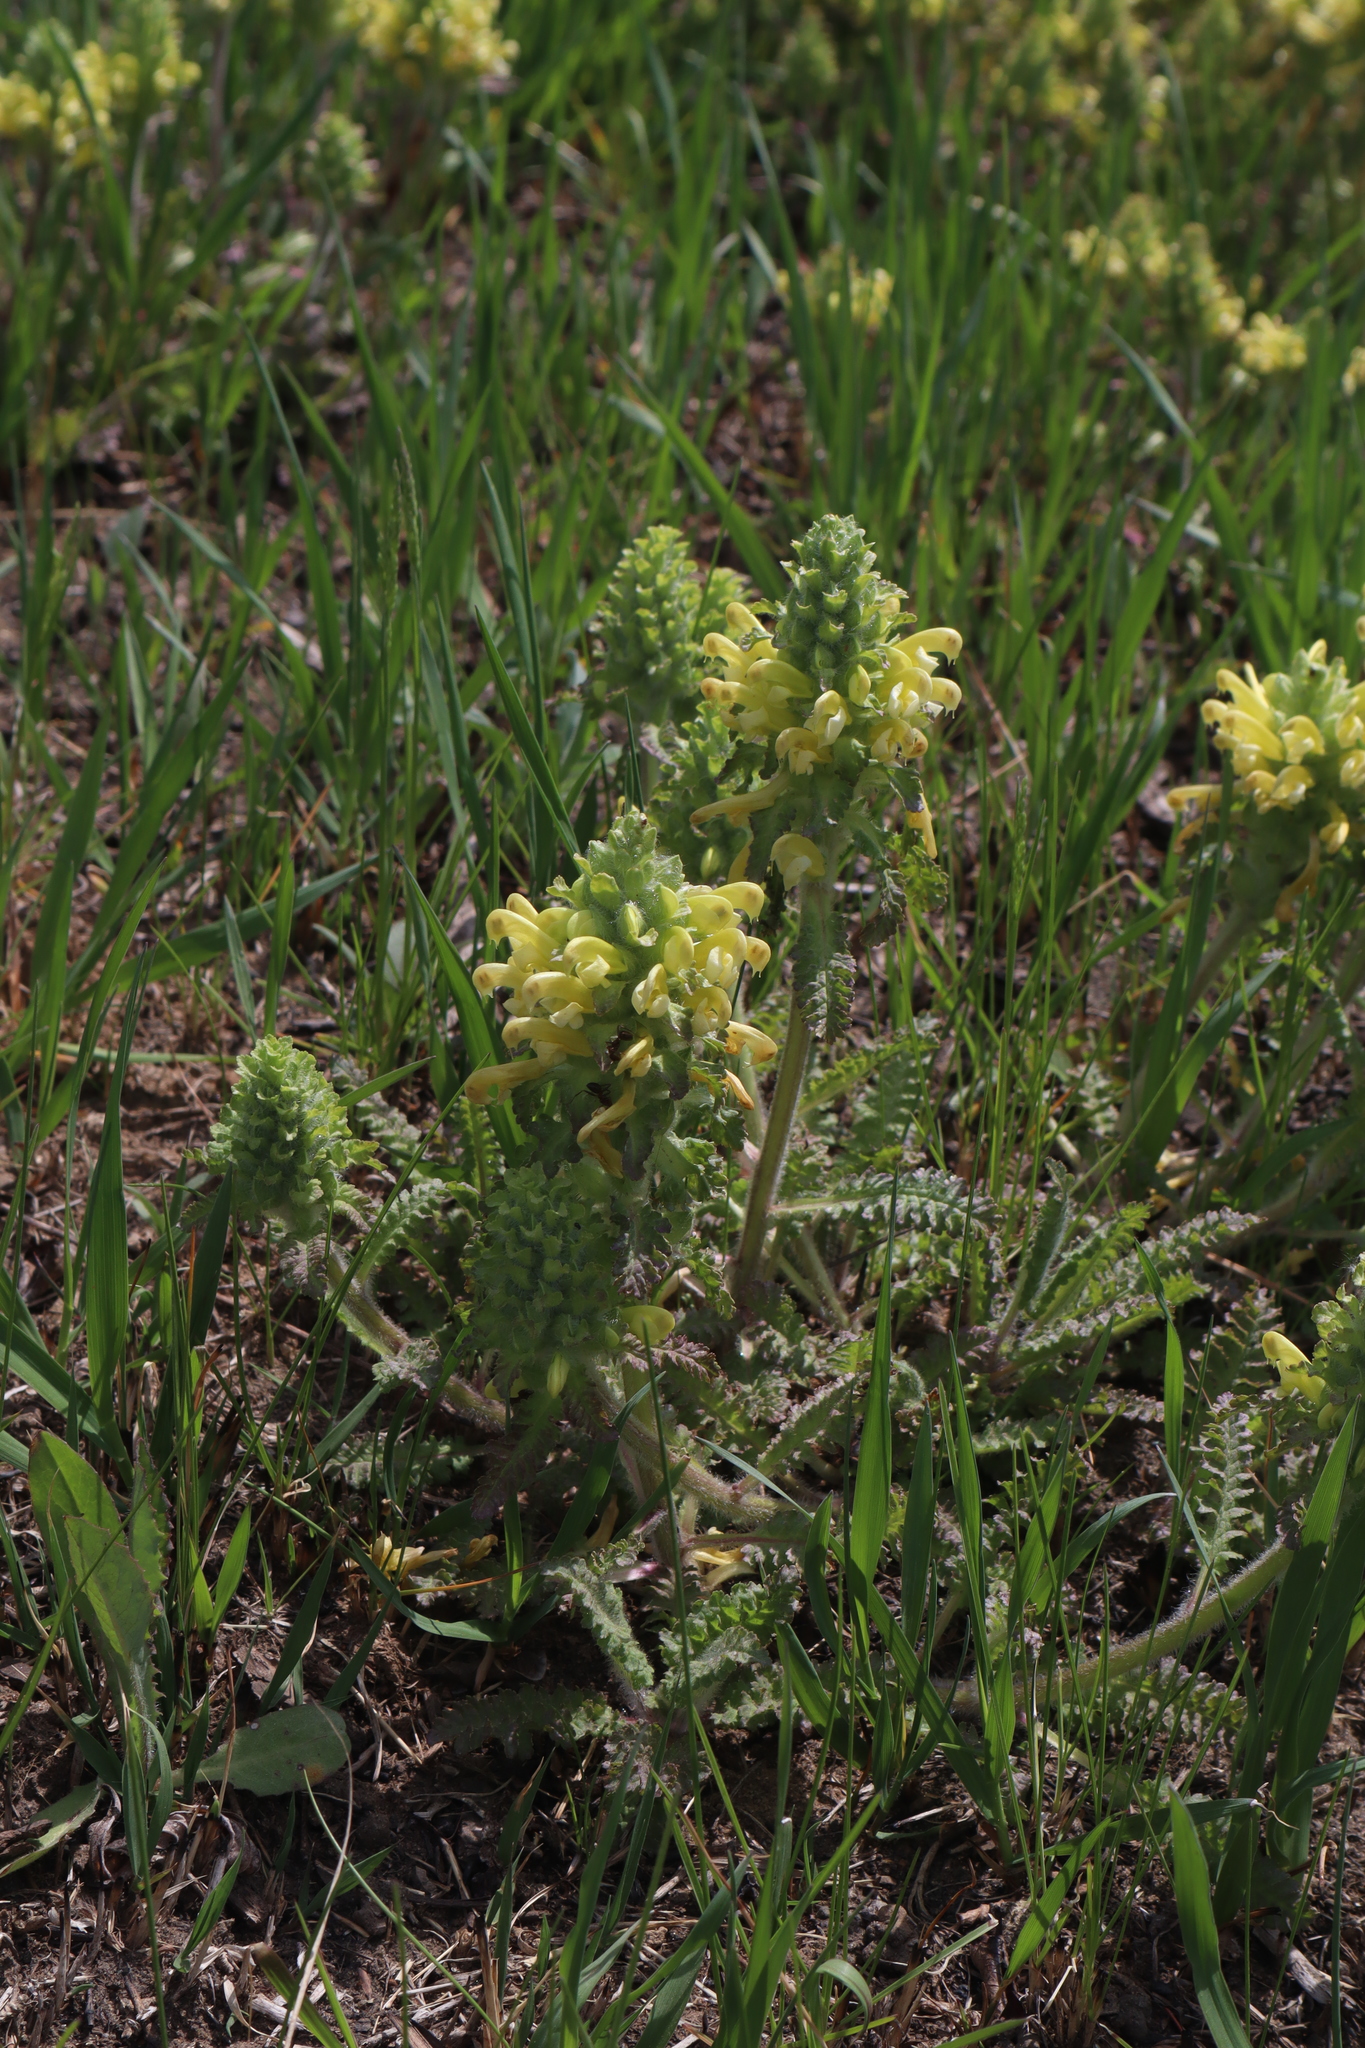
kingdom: Plantae
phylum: Tracheophyta
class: Magnoliopsida
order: Lamiales
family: Orobanchaceae
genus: Pedicularis
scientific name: Pedicularis canadensis
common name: Early lousewort
